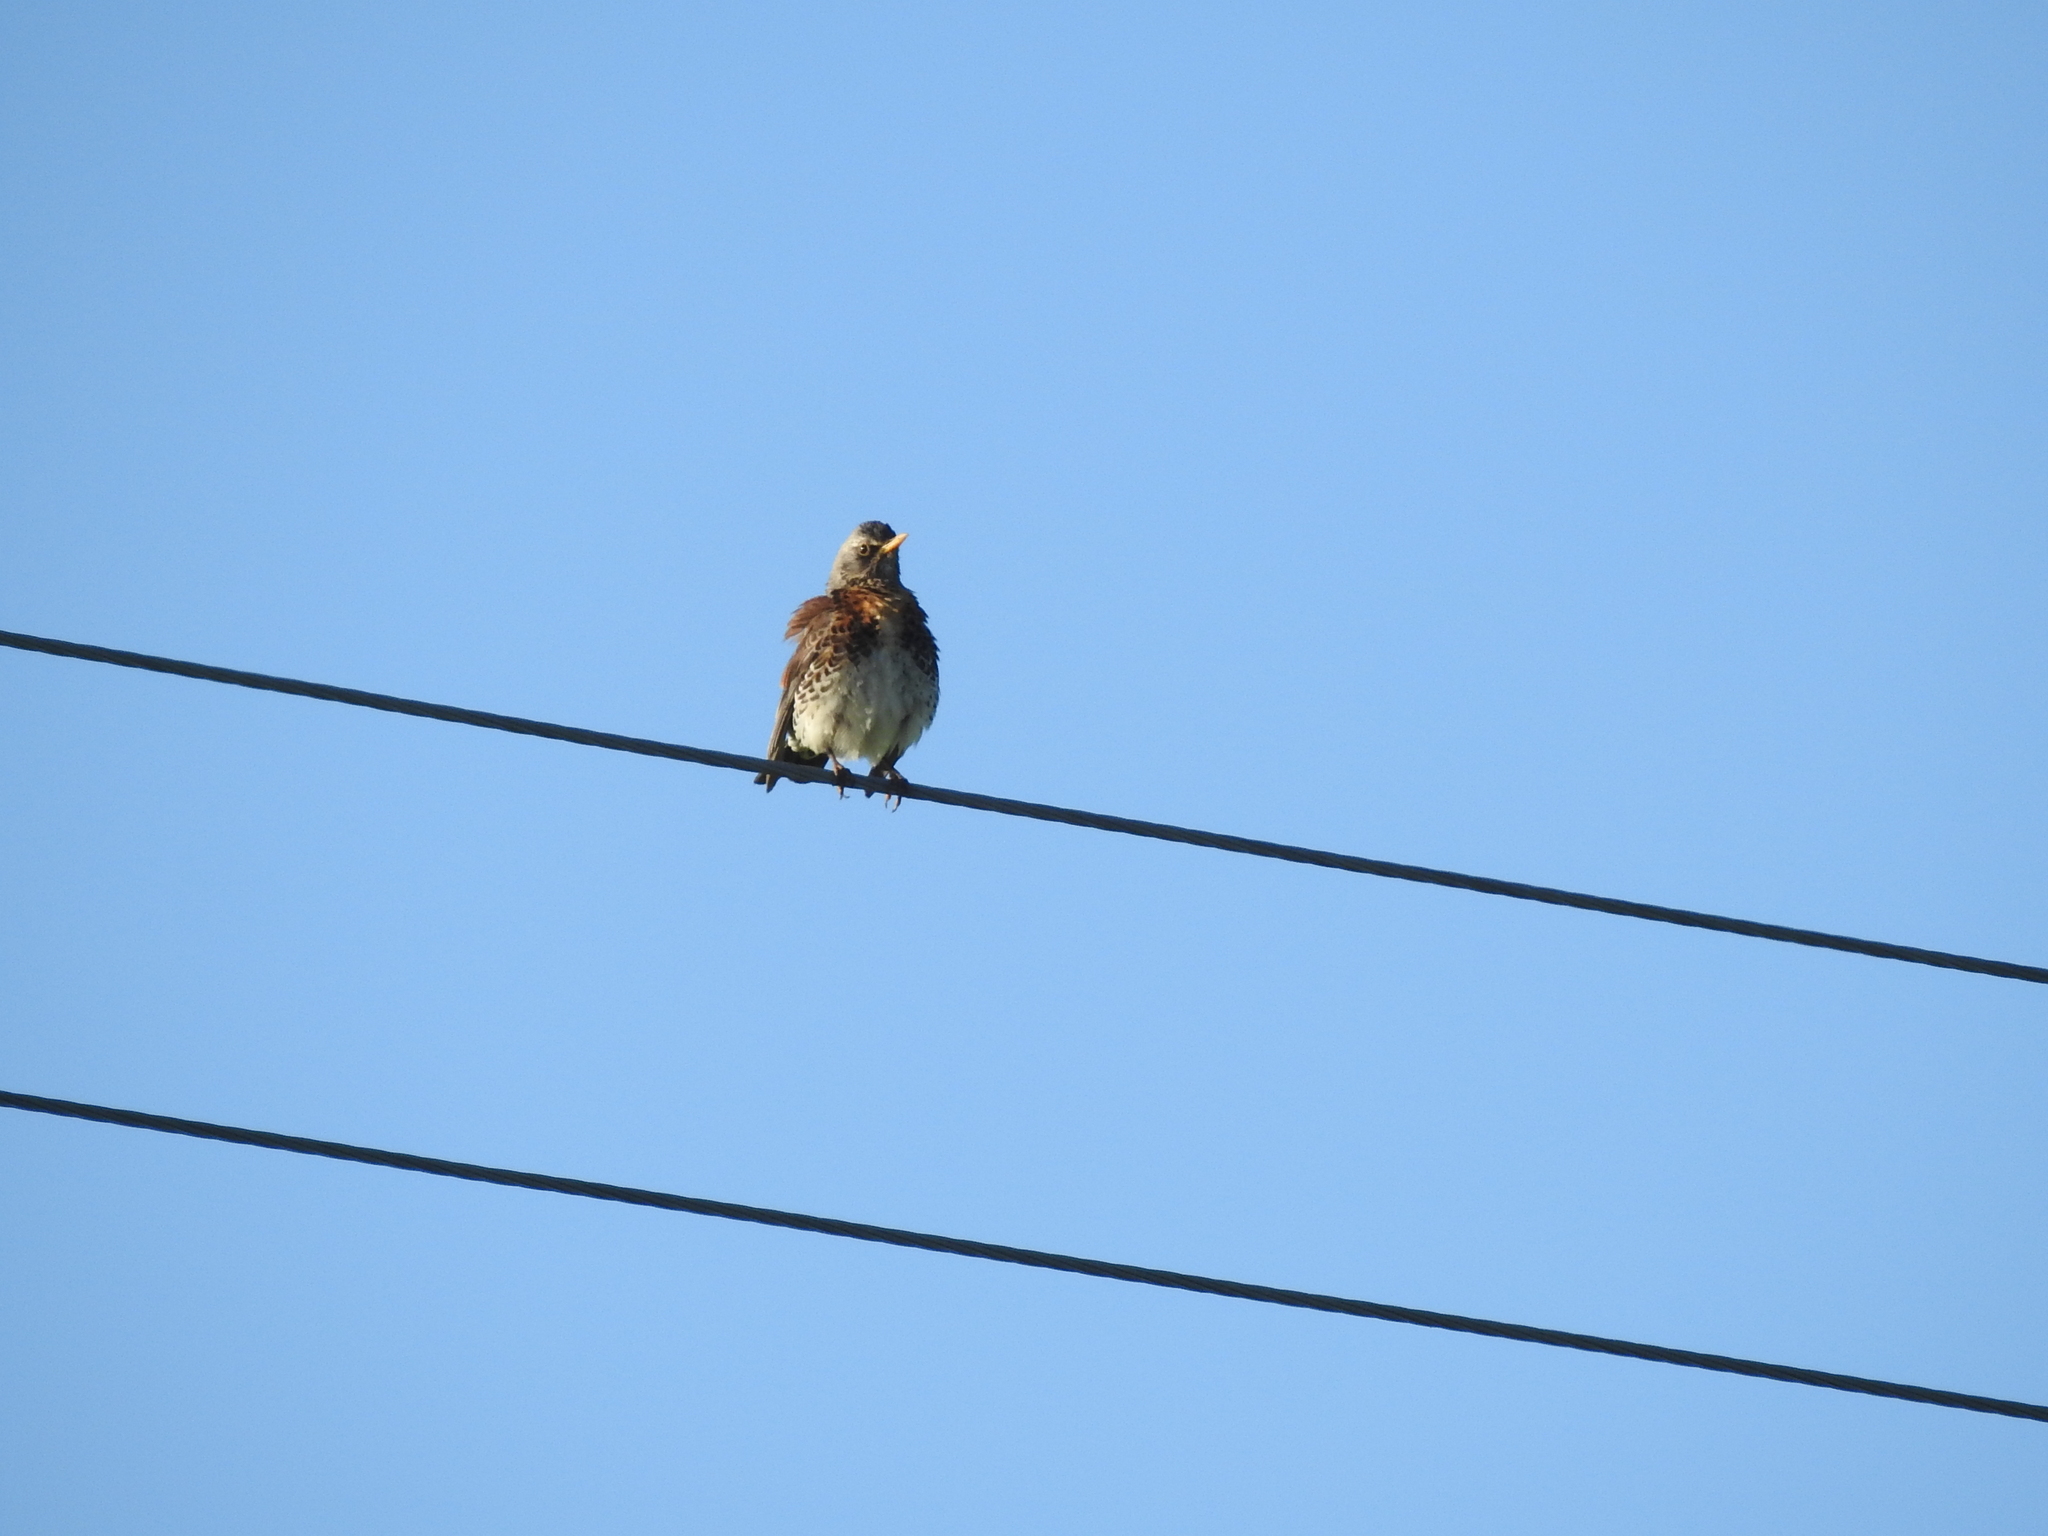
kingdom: Animalia
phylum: Chordata
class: Aves
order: Passeriformes
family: Turdidae
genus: Turdus
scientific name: Turdus pilaris
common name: Fieldfare
